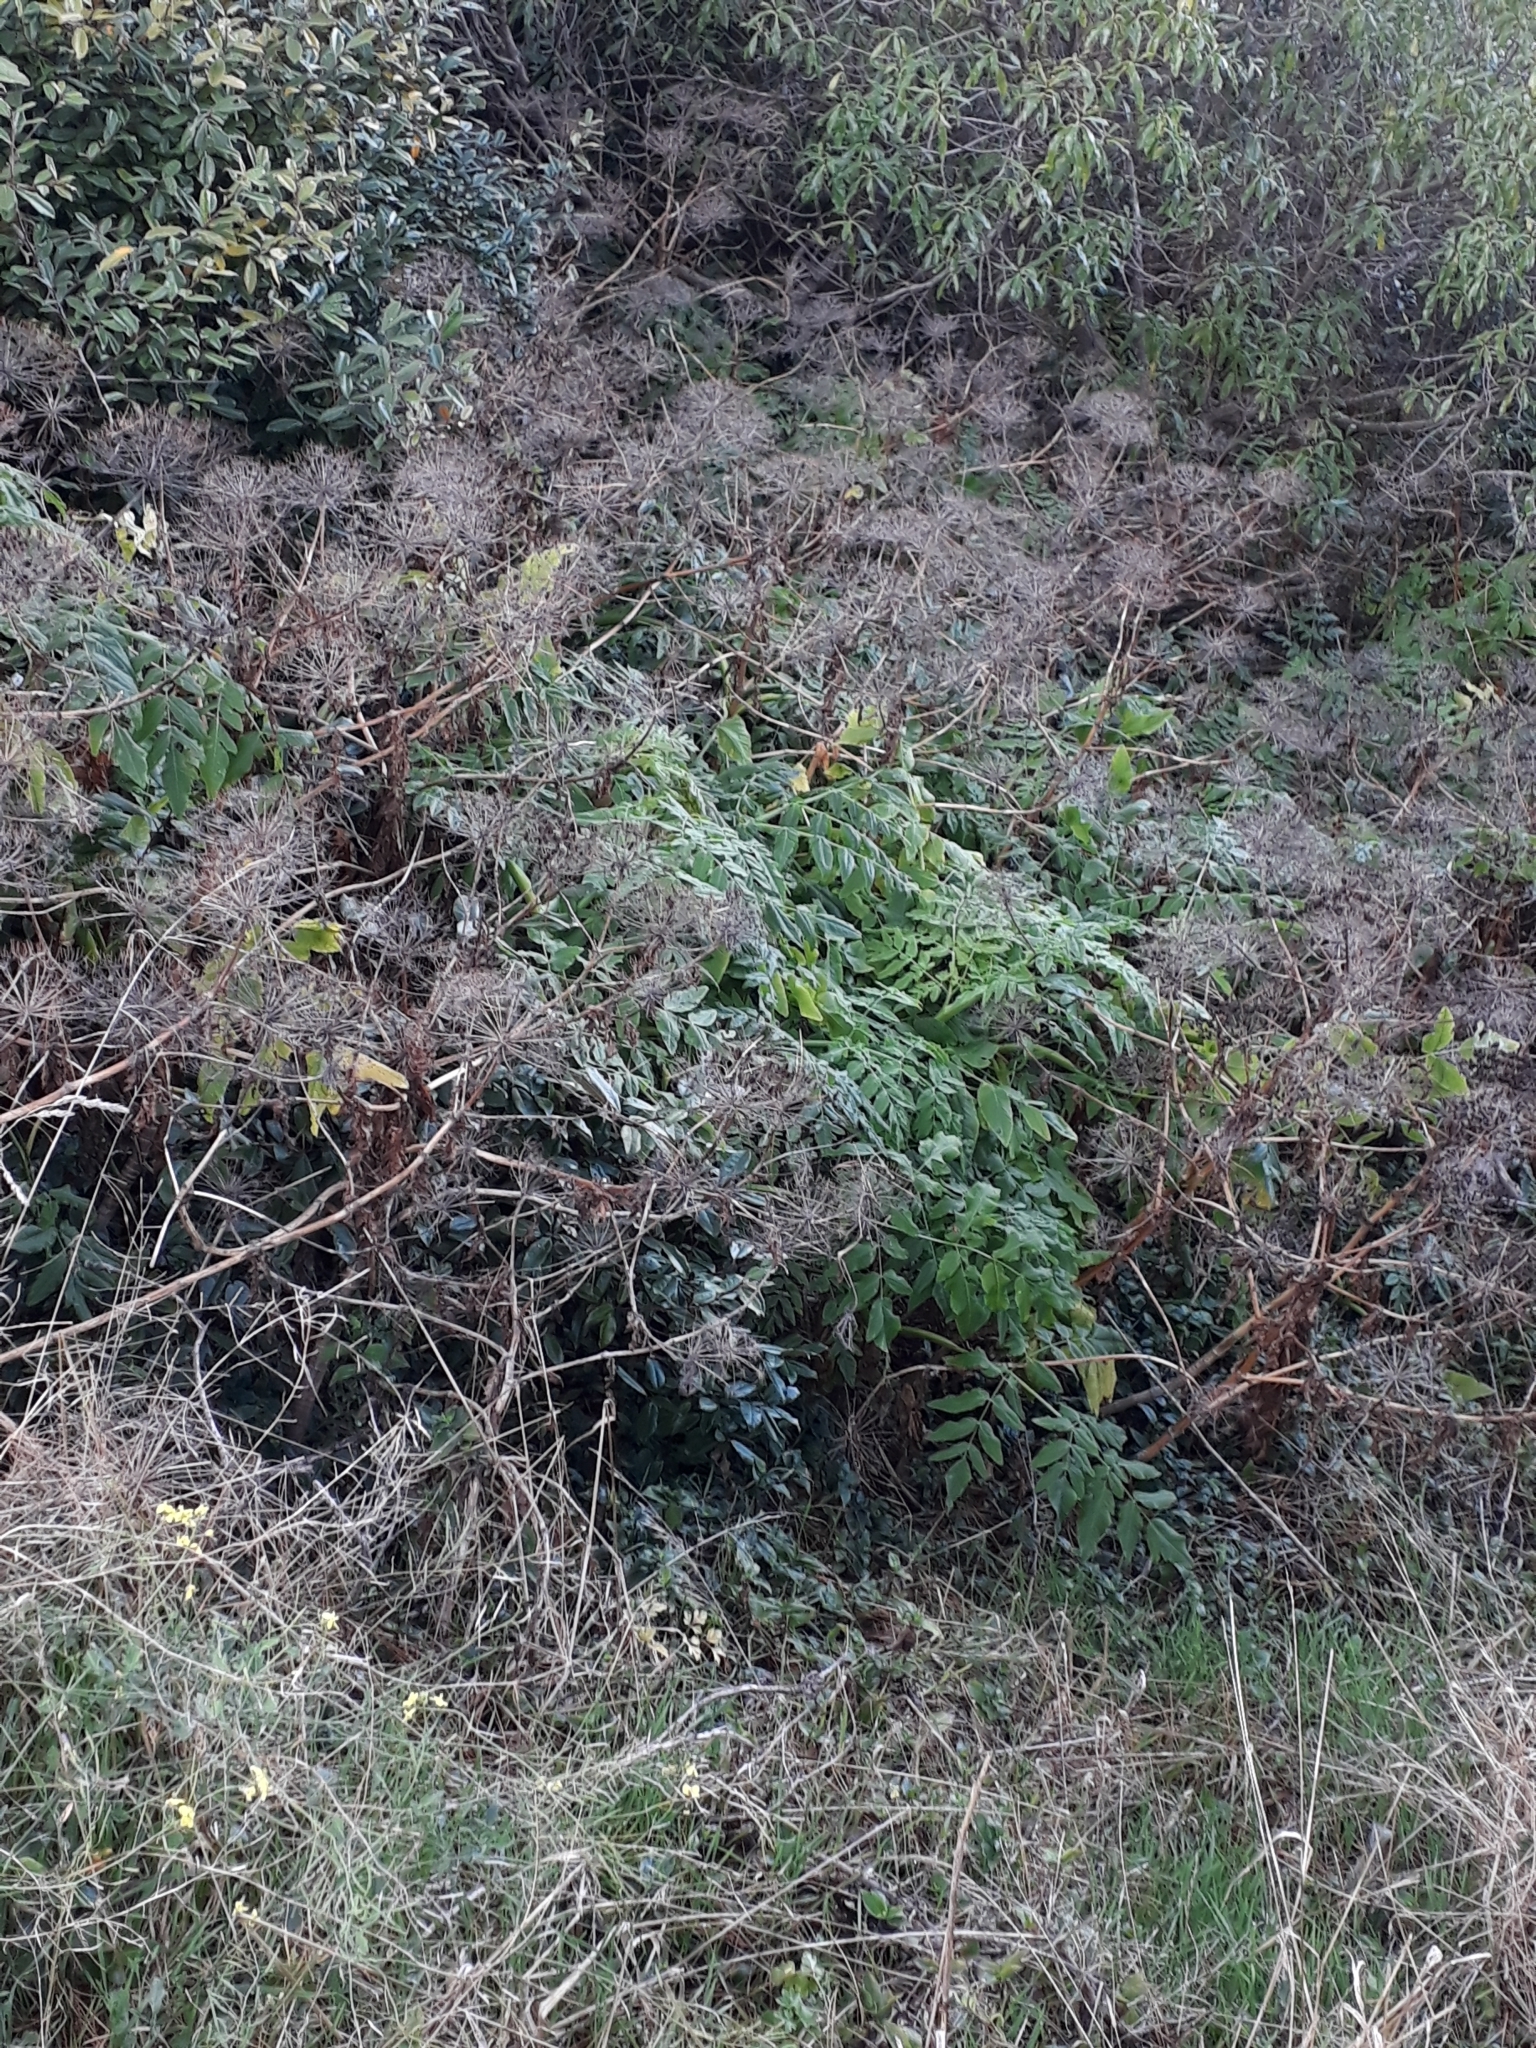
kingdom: Plantae
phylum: Tracheophyta
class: Magnoliopsida
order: Apiales
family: Apiaceae
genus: Daucus
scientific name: Daucus decipiens
